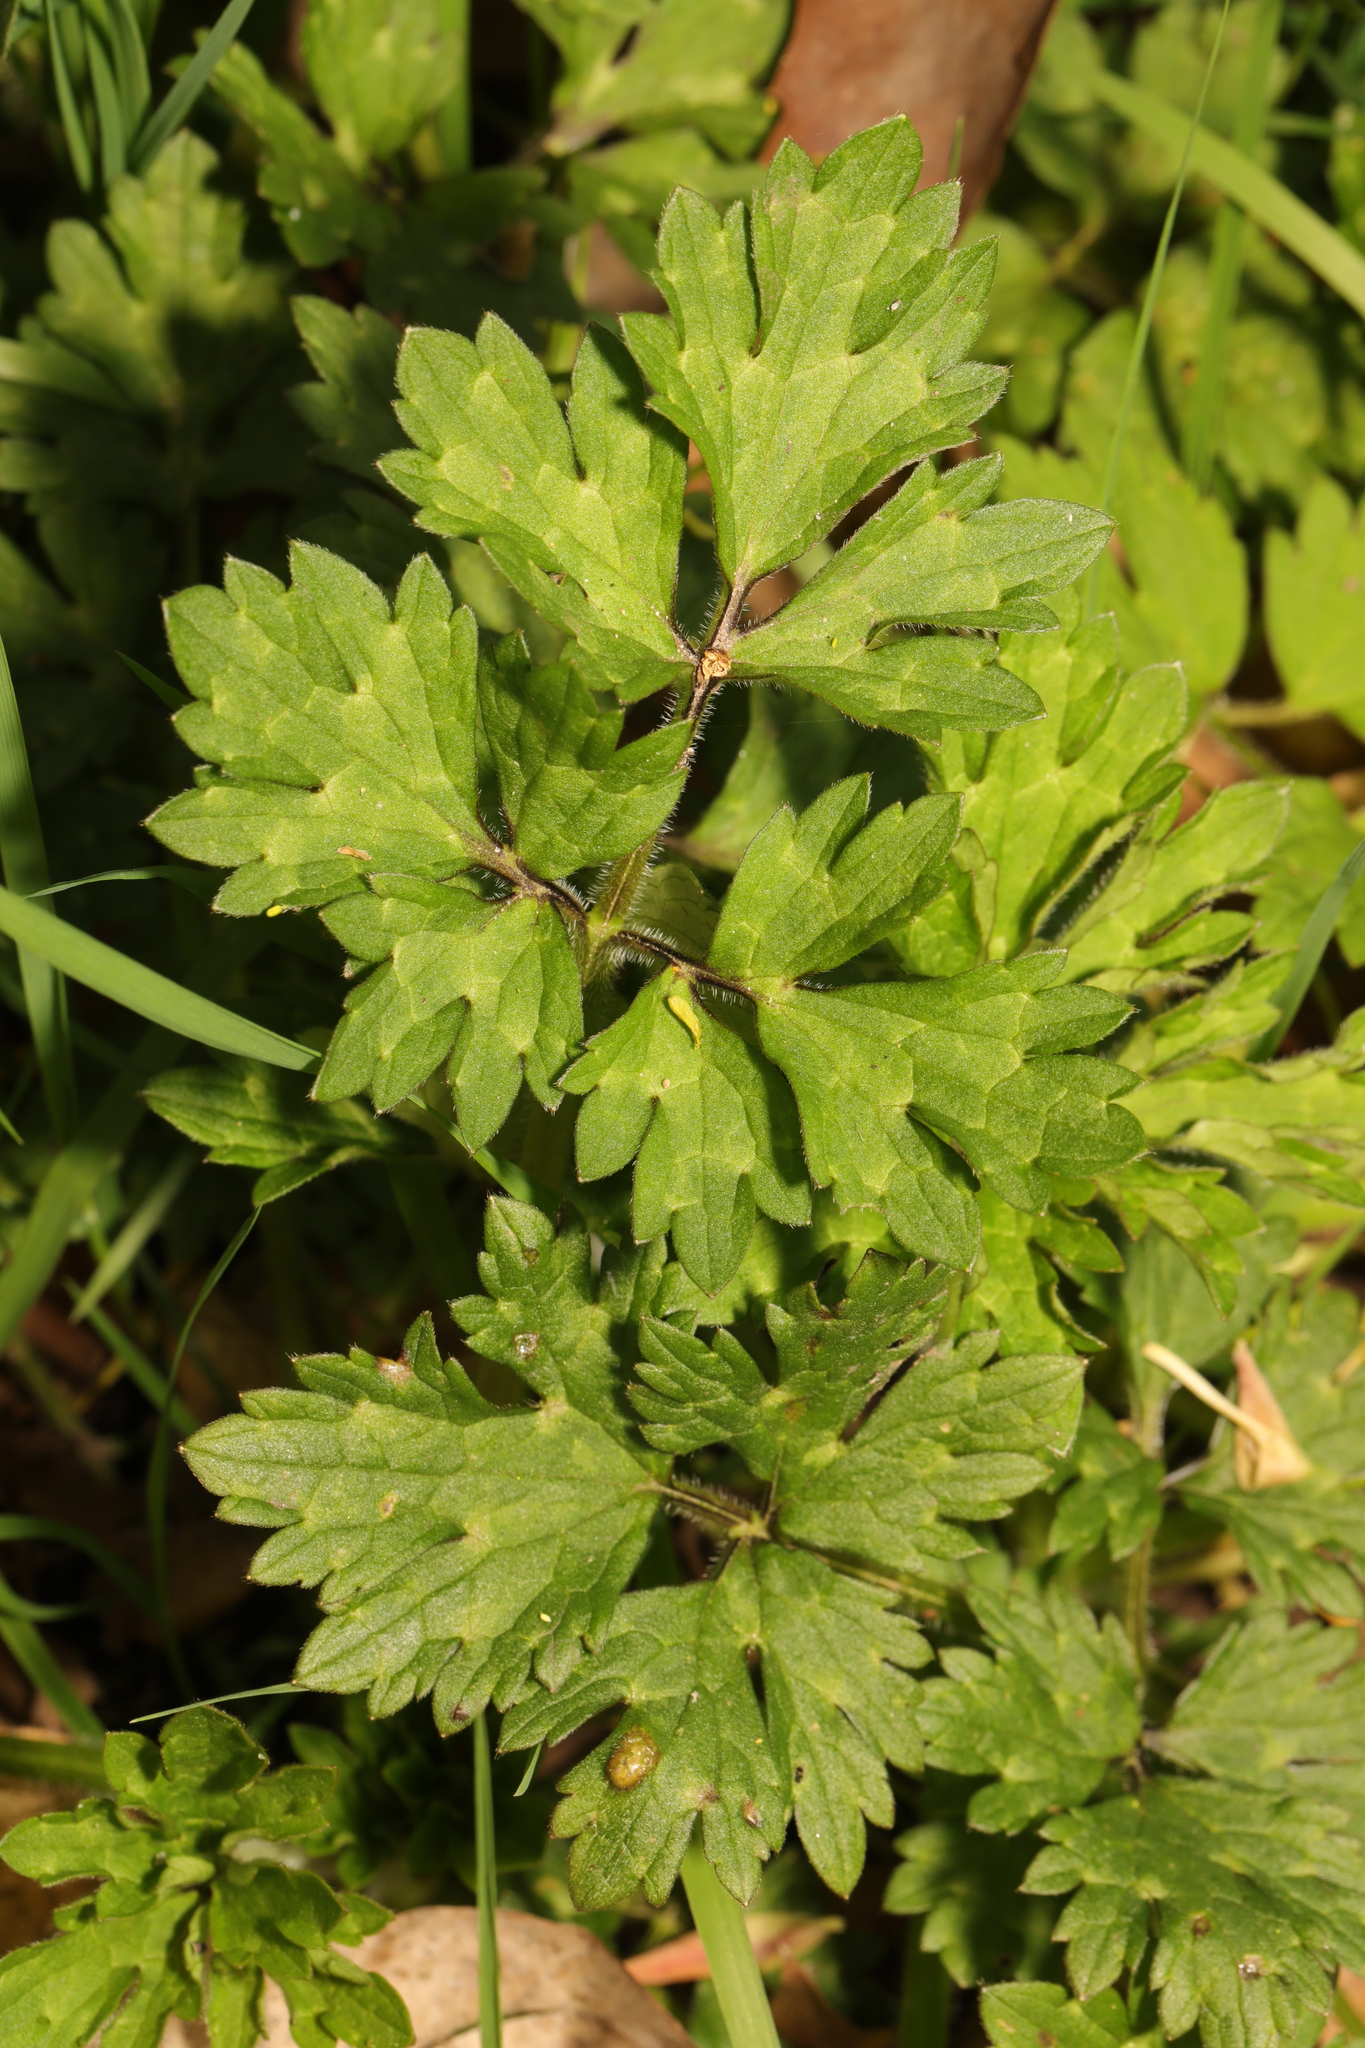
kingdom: Plantae
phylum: Tracheophyta
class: Magnoliopsida
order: Ranunculales
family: Ranunculaceae
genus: Ranunculus
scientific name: Ranunculus repens
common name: Creeping buttercup
